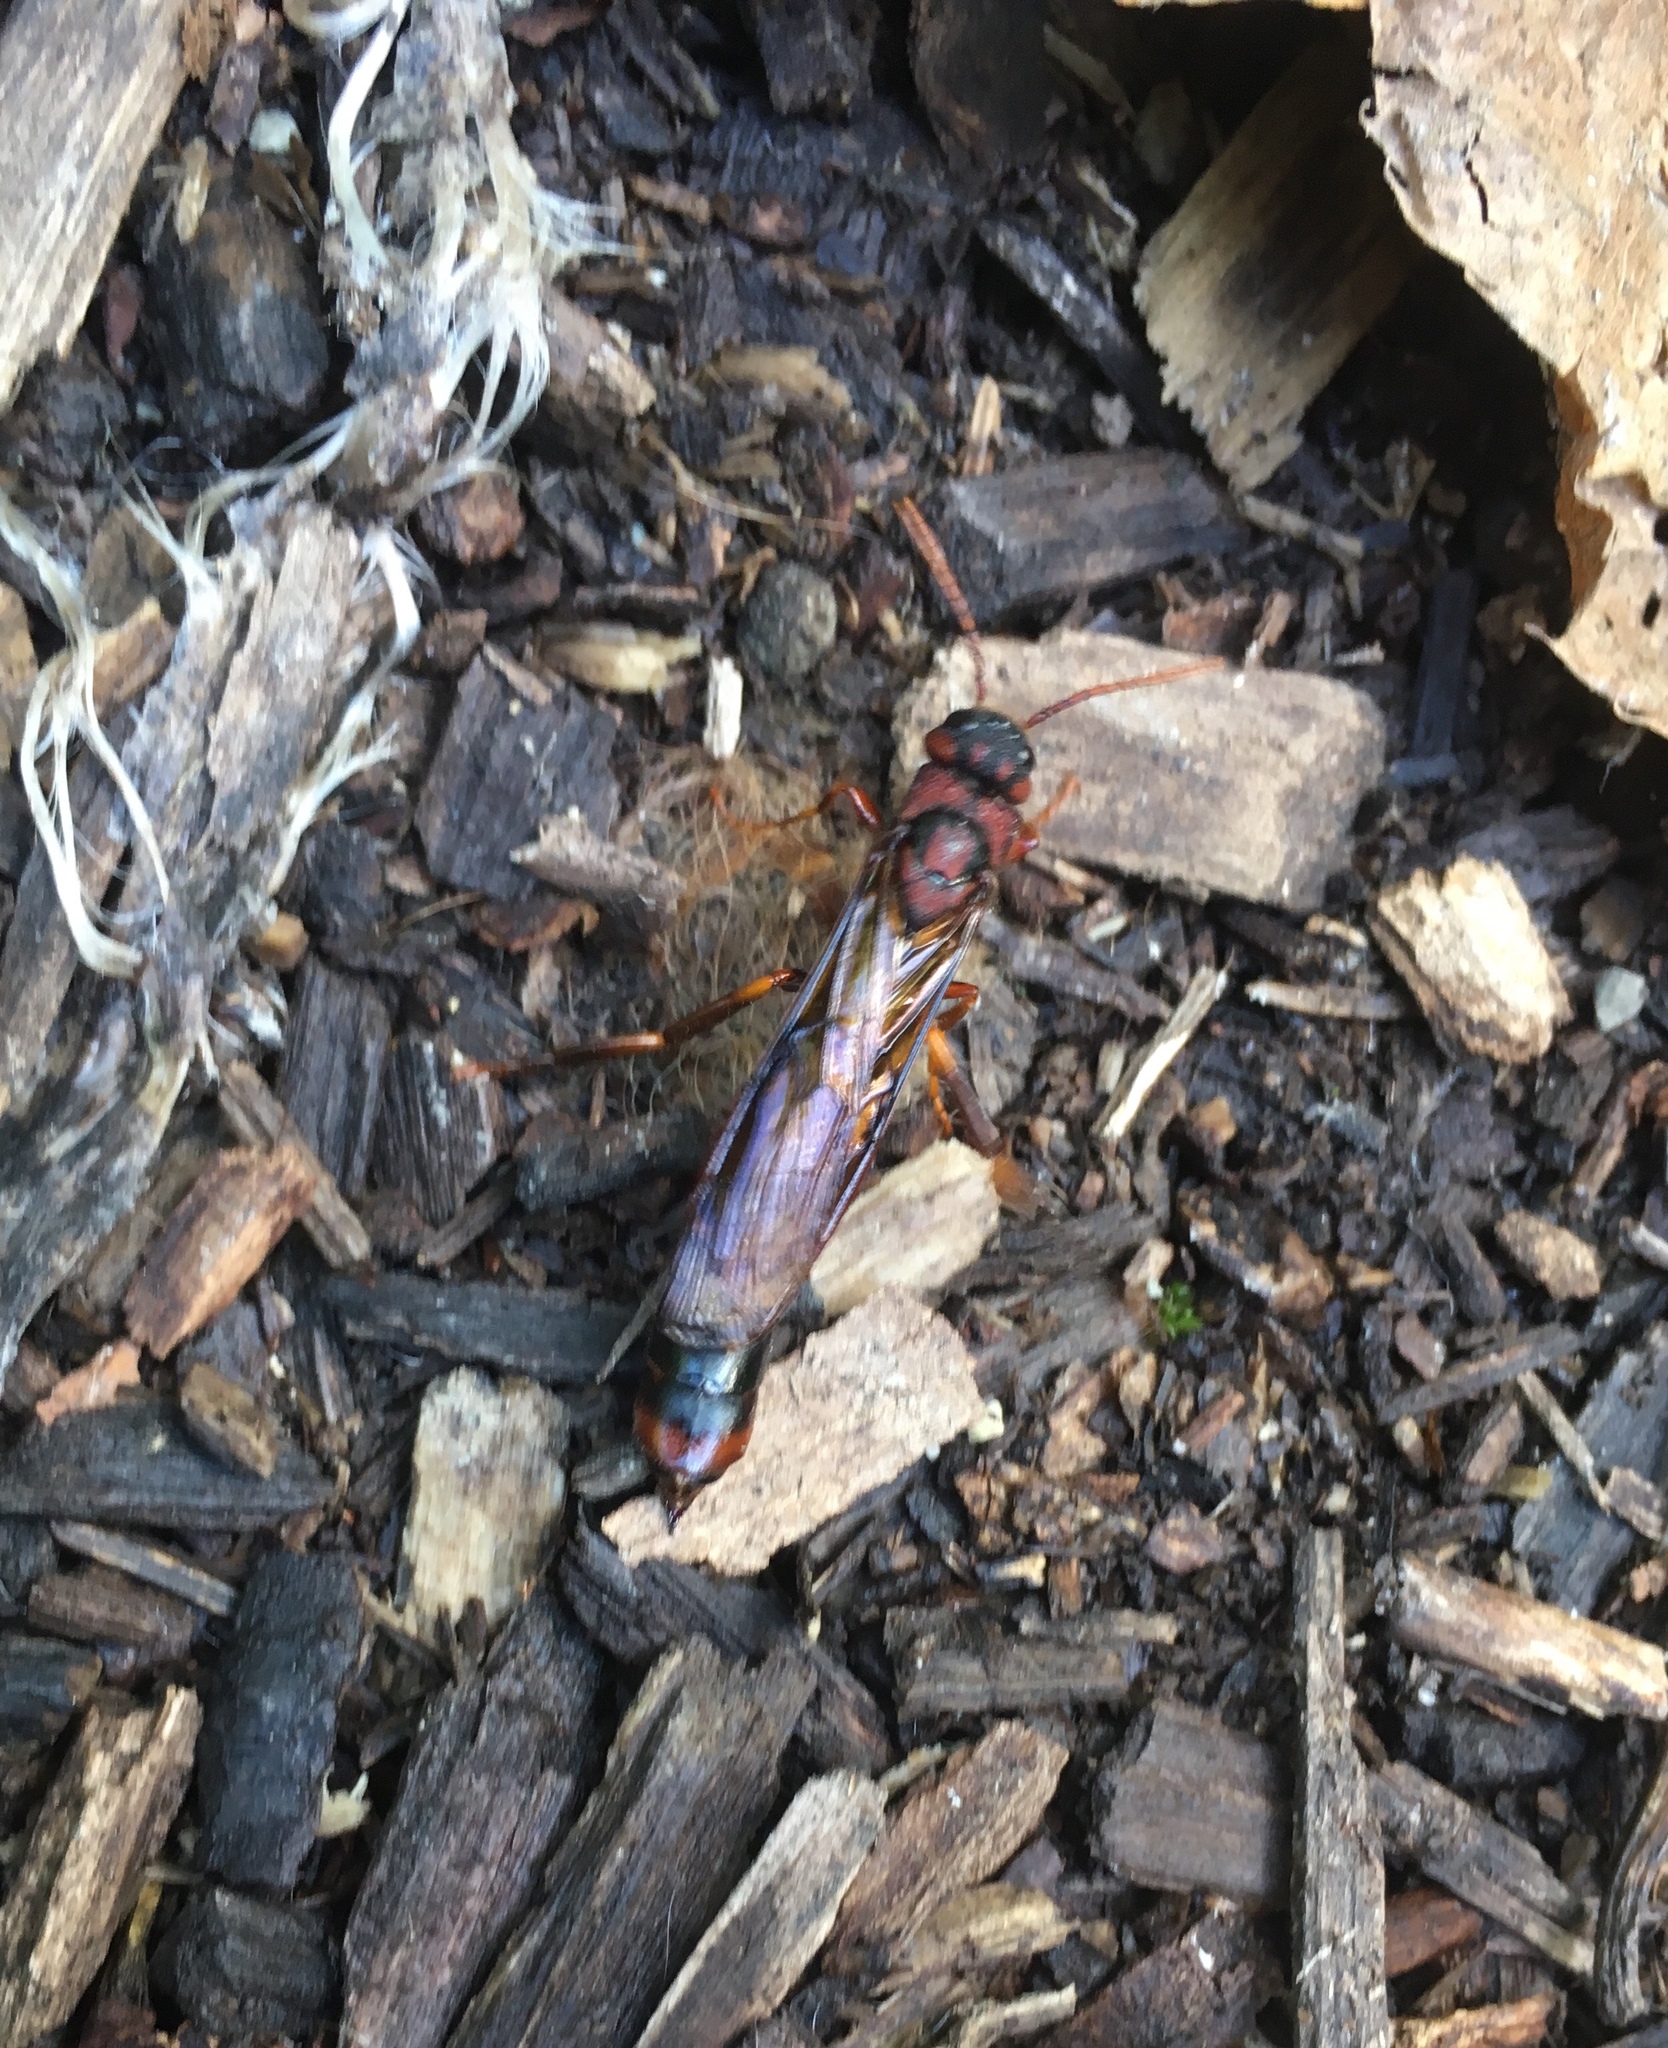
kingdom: Animalia
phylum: Arthropoda
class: Insecta
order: Hymenoptera
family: Siricidae
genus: Tremex
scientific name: Tremex columba
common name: Wasp
